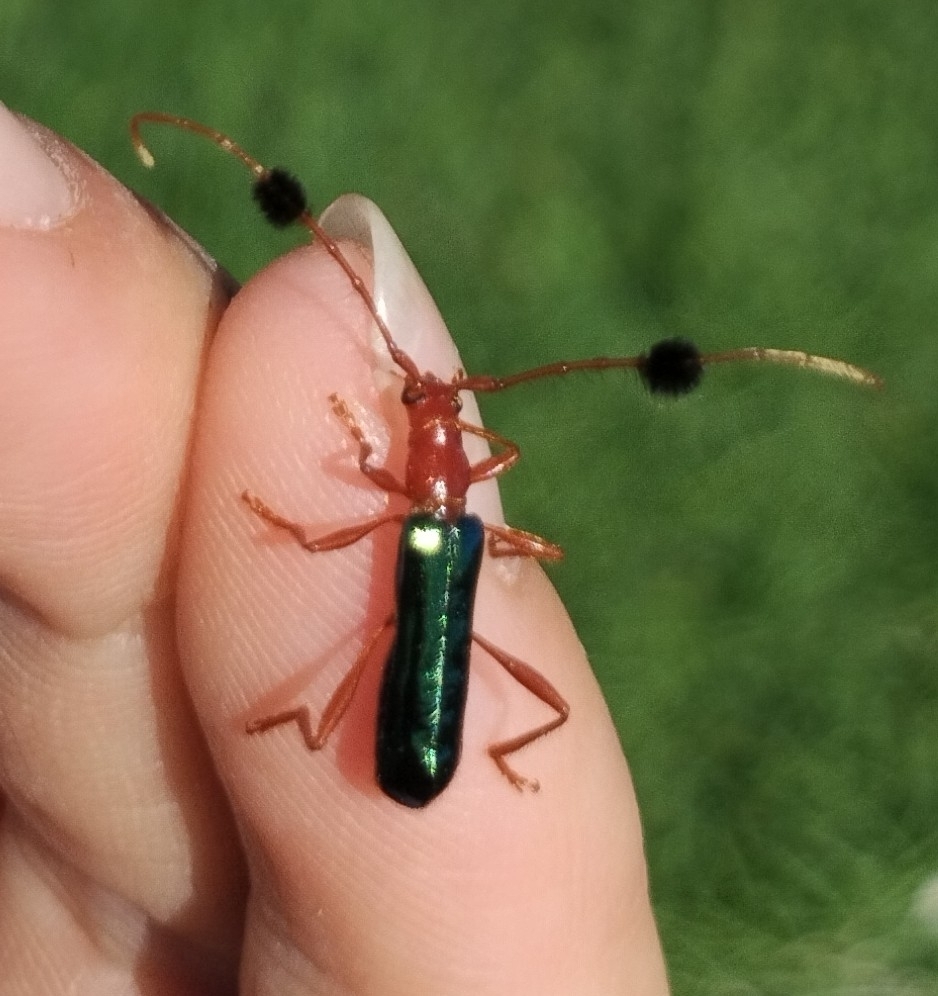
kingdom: Animalia
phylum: Arthropoda
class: Insecta
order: Coleoptera
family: Cerambycidae
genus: Paromoeocerus
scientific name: Paromoeocerus barbicornis
